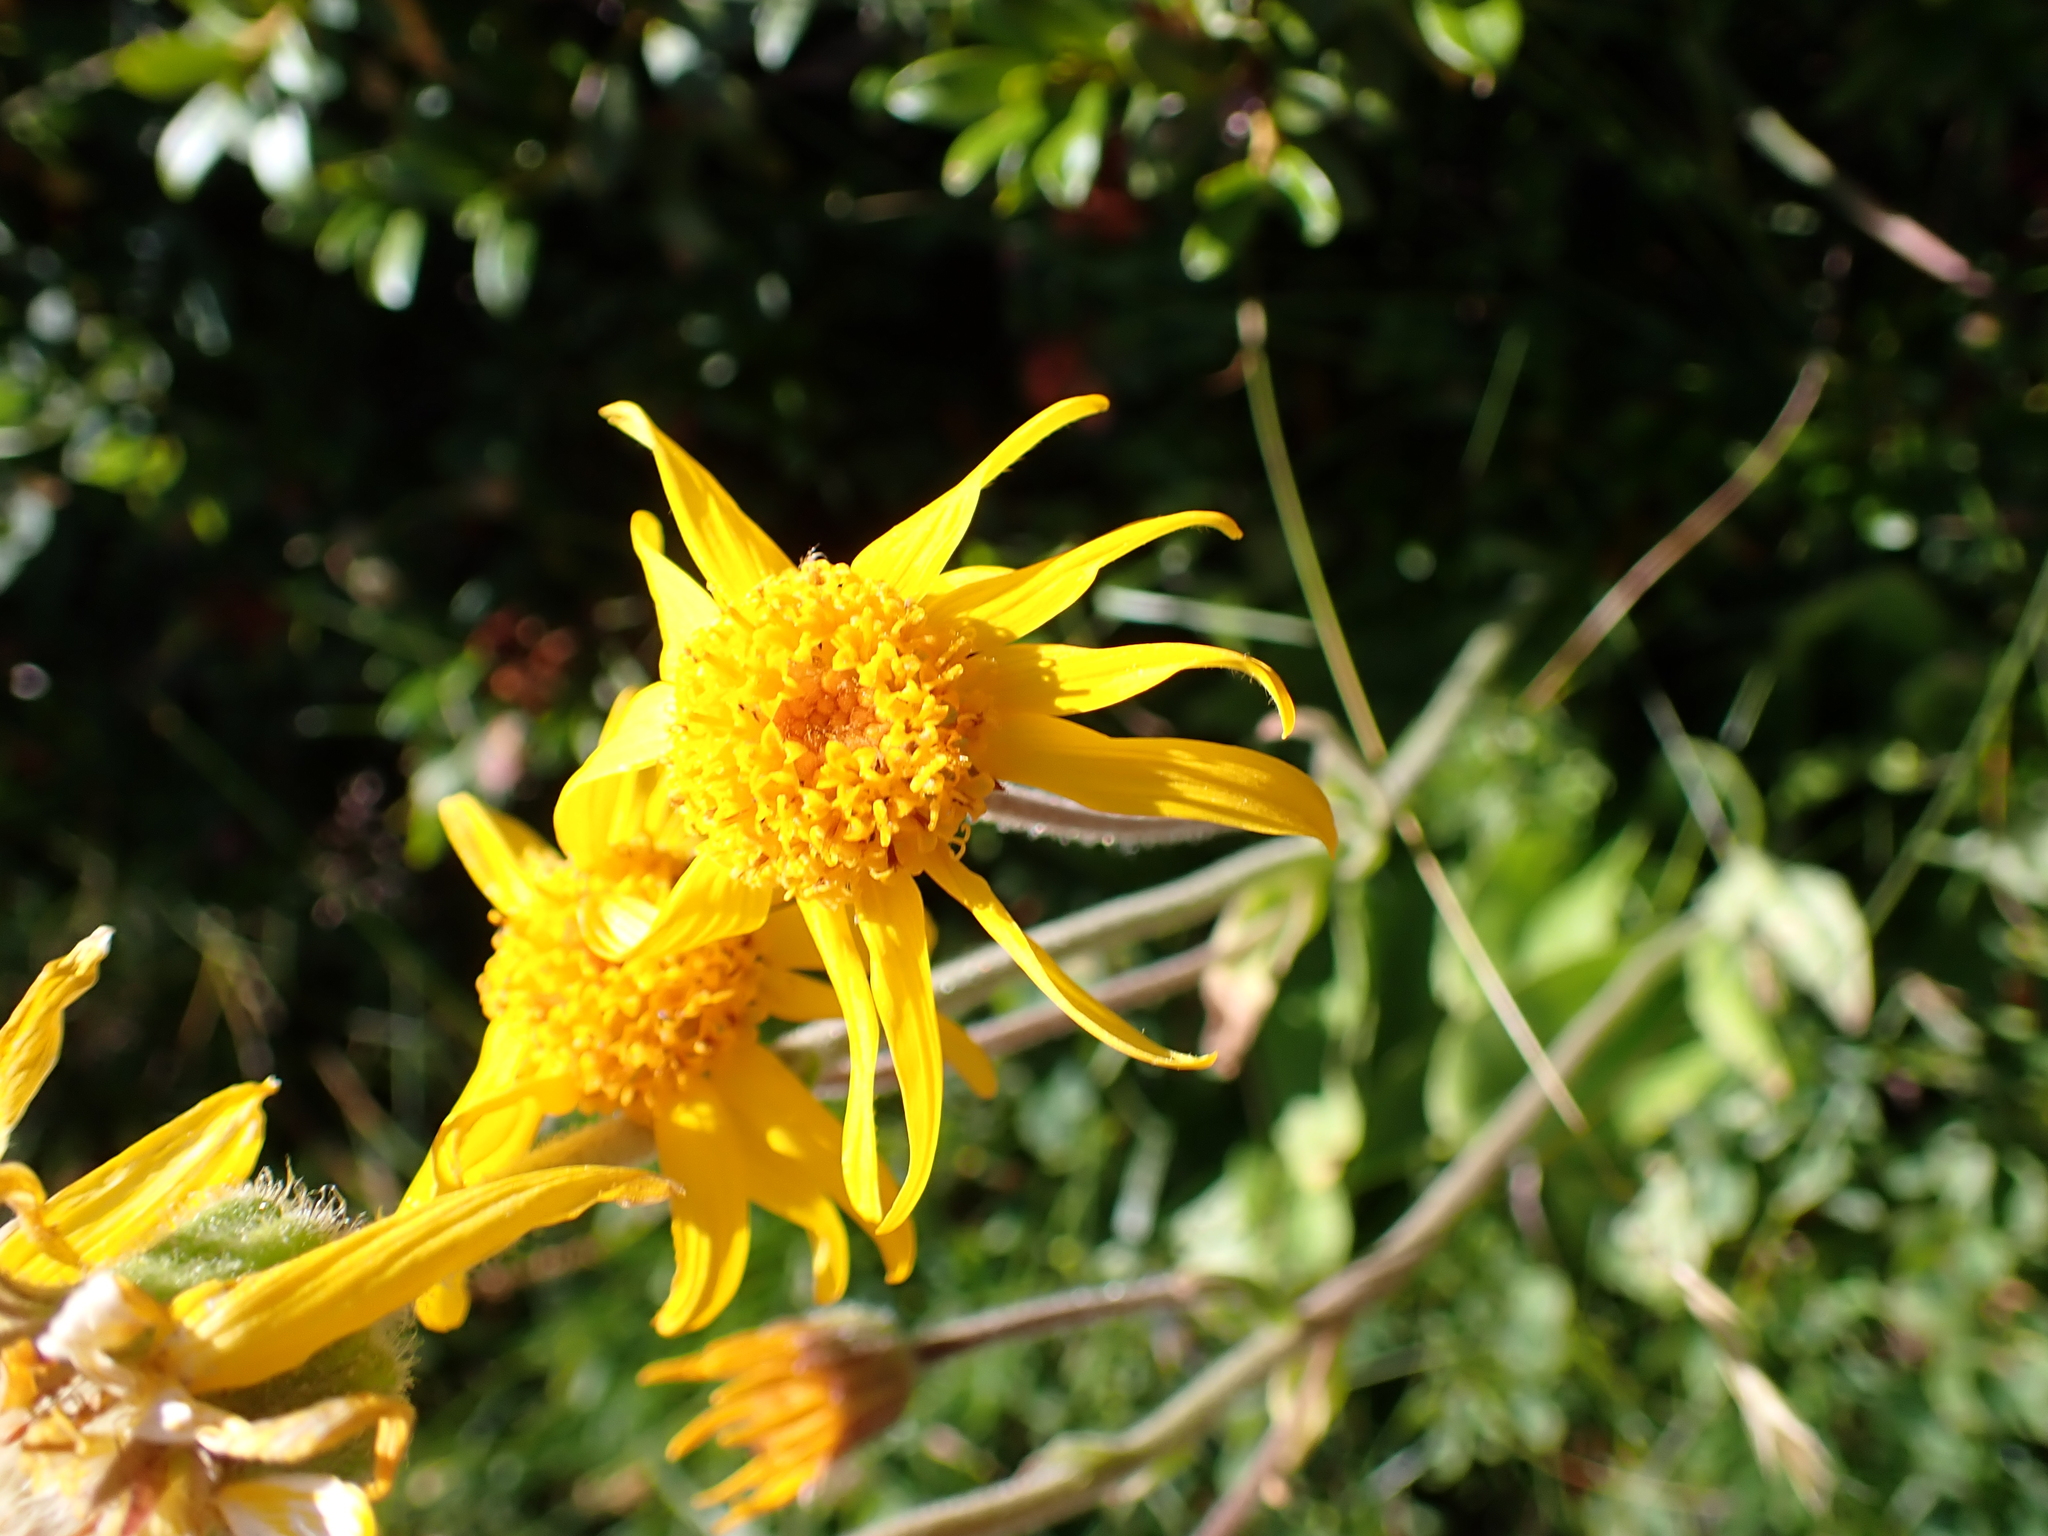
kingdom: Plantae
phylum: Tracheophyta
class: Magnoliopsida
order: Asterales
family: Asteraceae
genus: Arnica
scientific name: Arnica montana
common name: Leopard's bane
